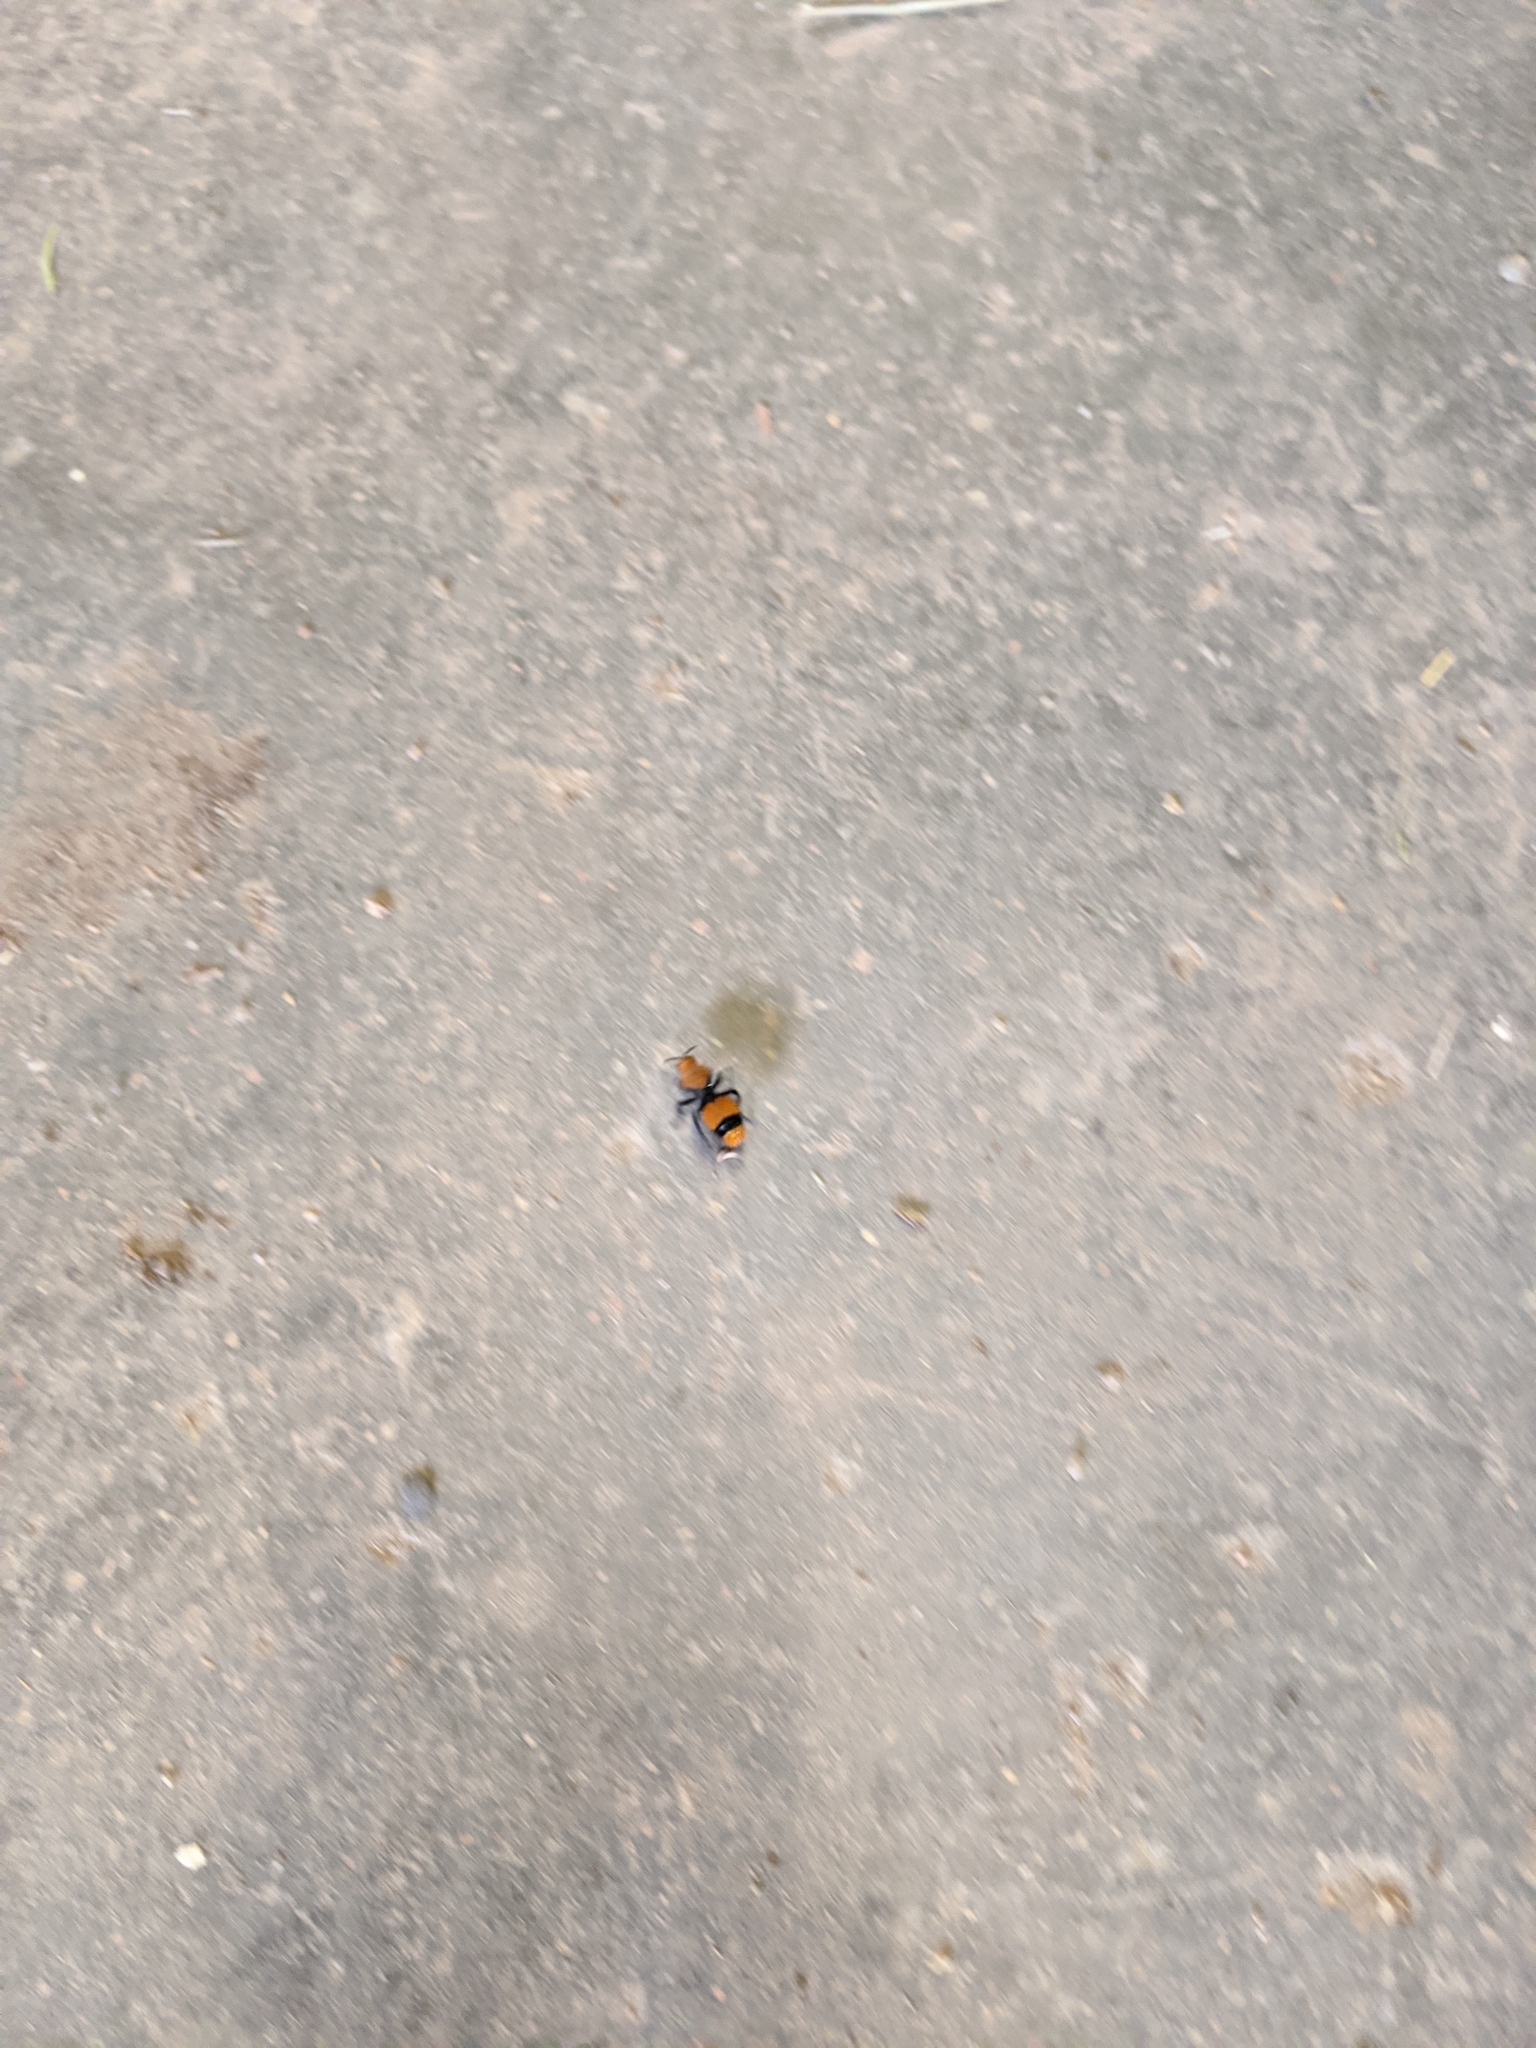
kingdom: Animalia
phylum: Arthropoda
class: Insecta
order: Hymenoptera
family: Mutillidae
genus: Dasymutilla
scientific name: Dasymutilla occidentalis
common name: Common eastern velvet ant
